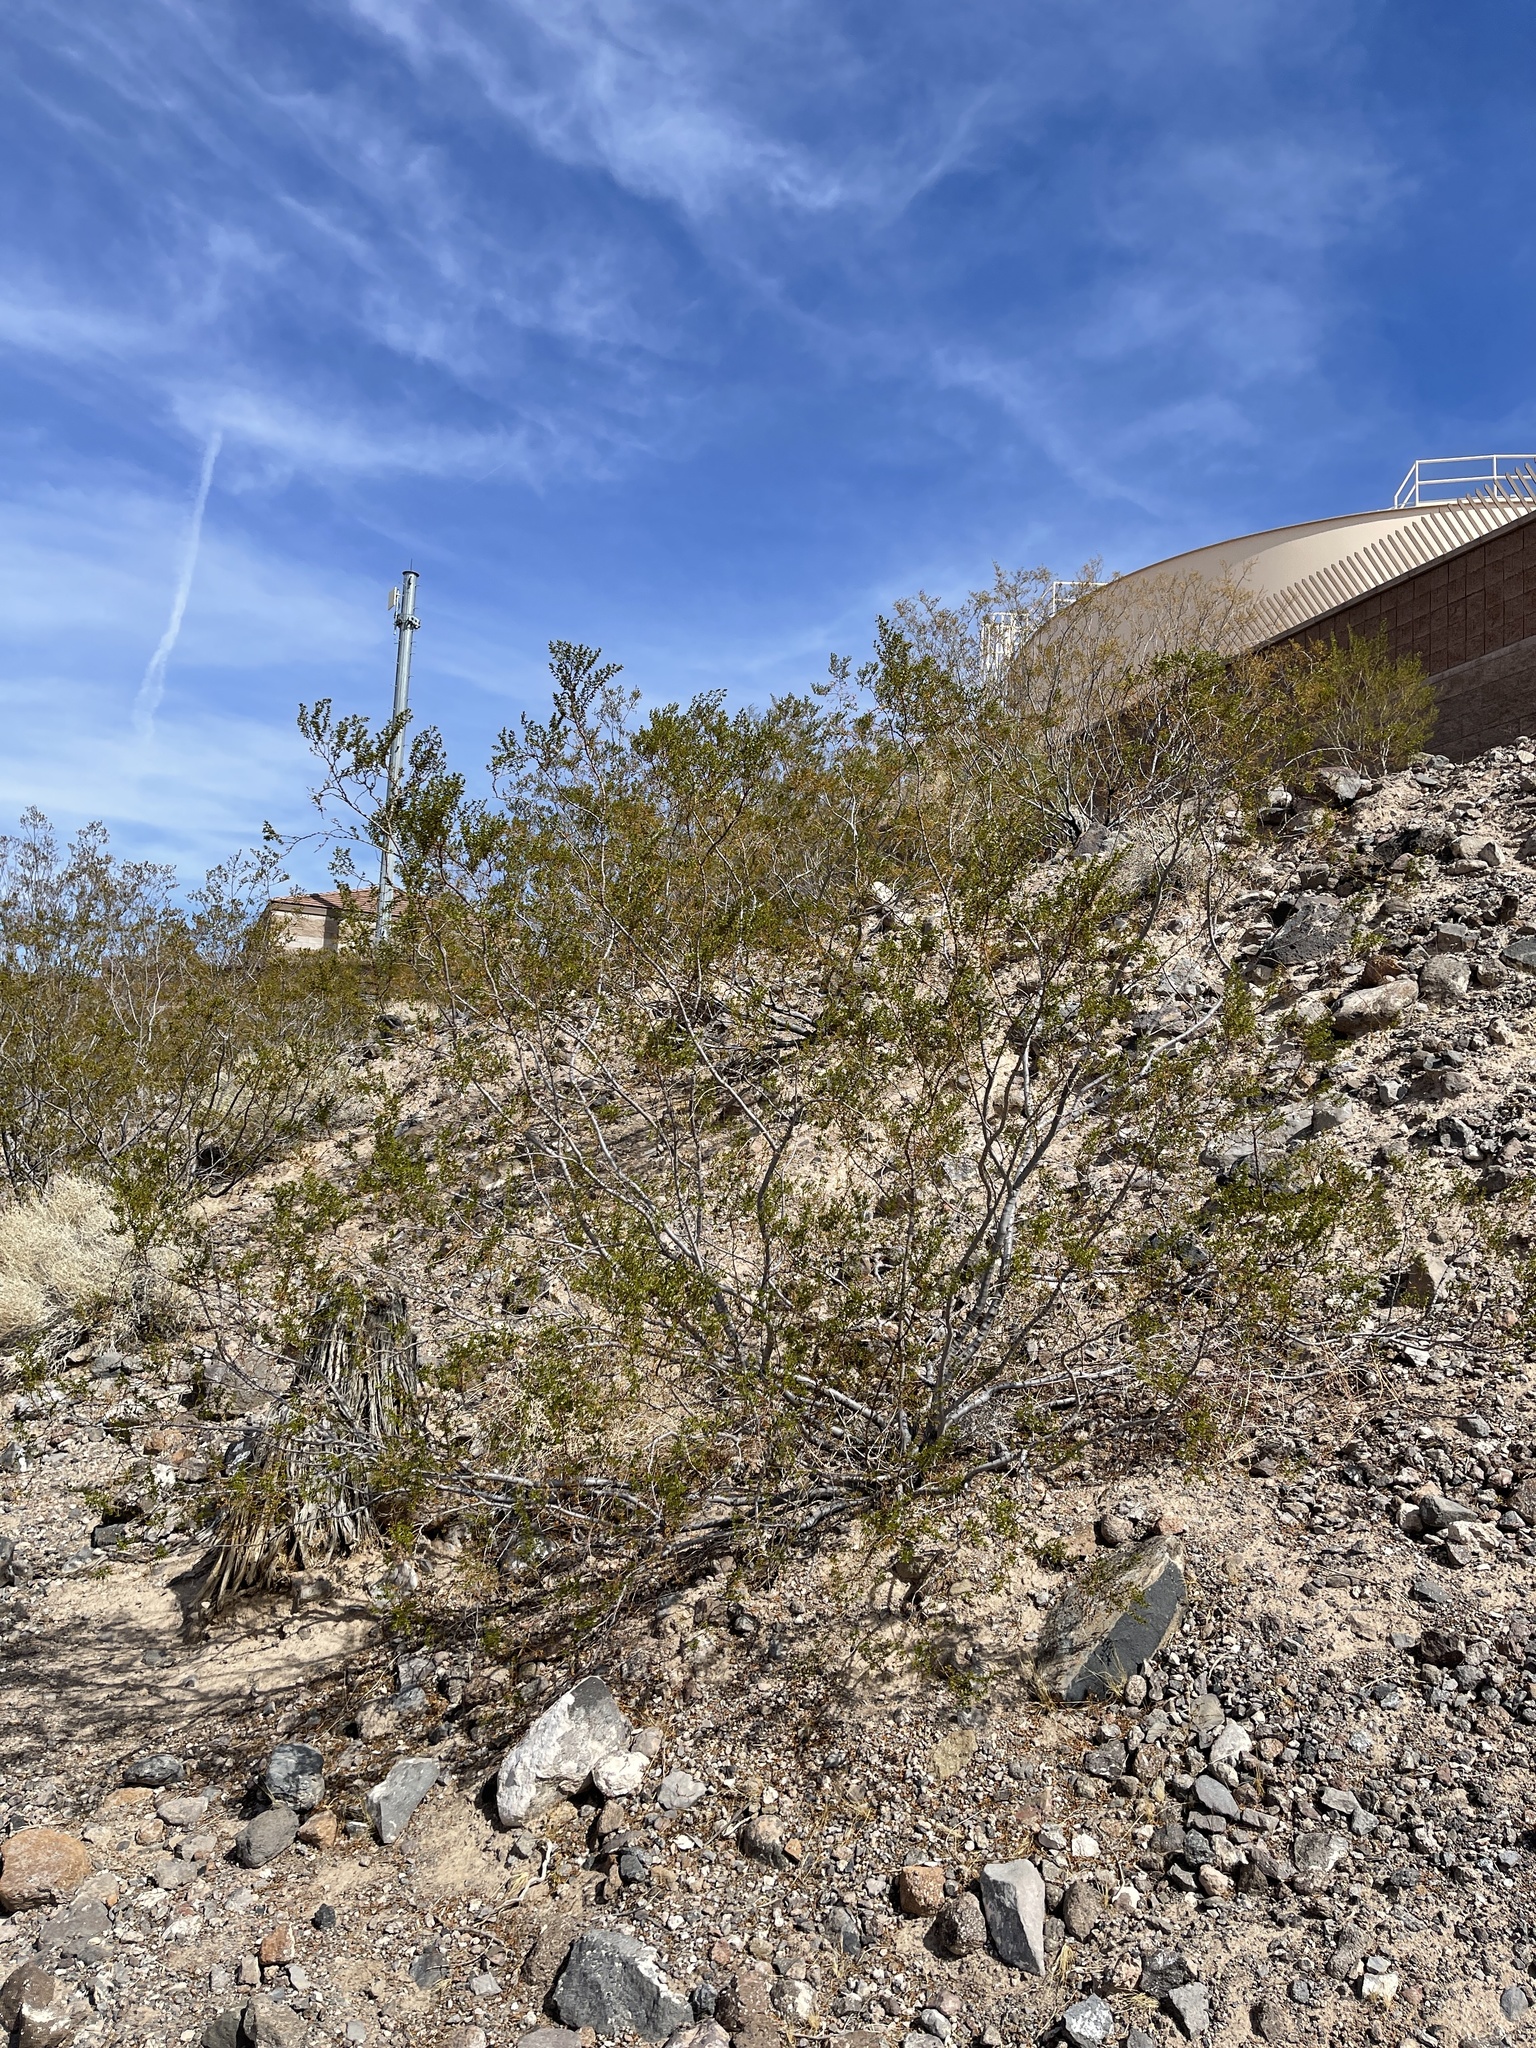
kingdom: Plantae
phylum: Tracheophyta
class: Magnoliopsida
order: Zygophyllales
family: Zygophyllaceae
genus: Larrea
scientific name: Larrea tridentata
